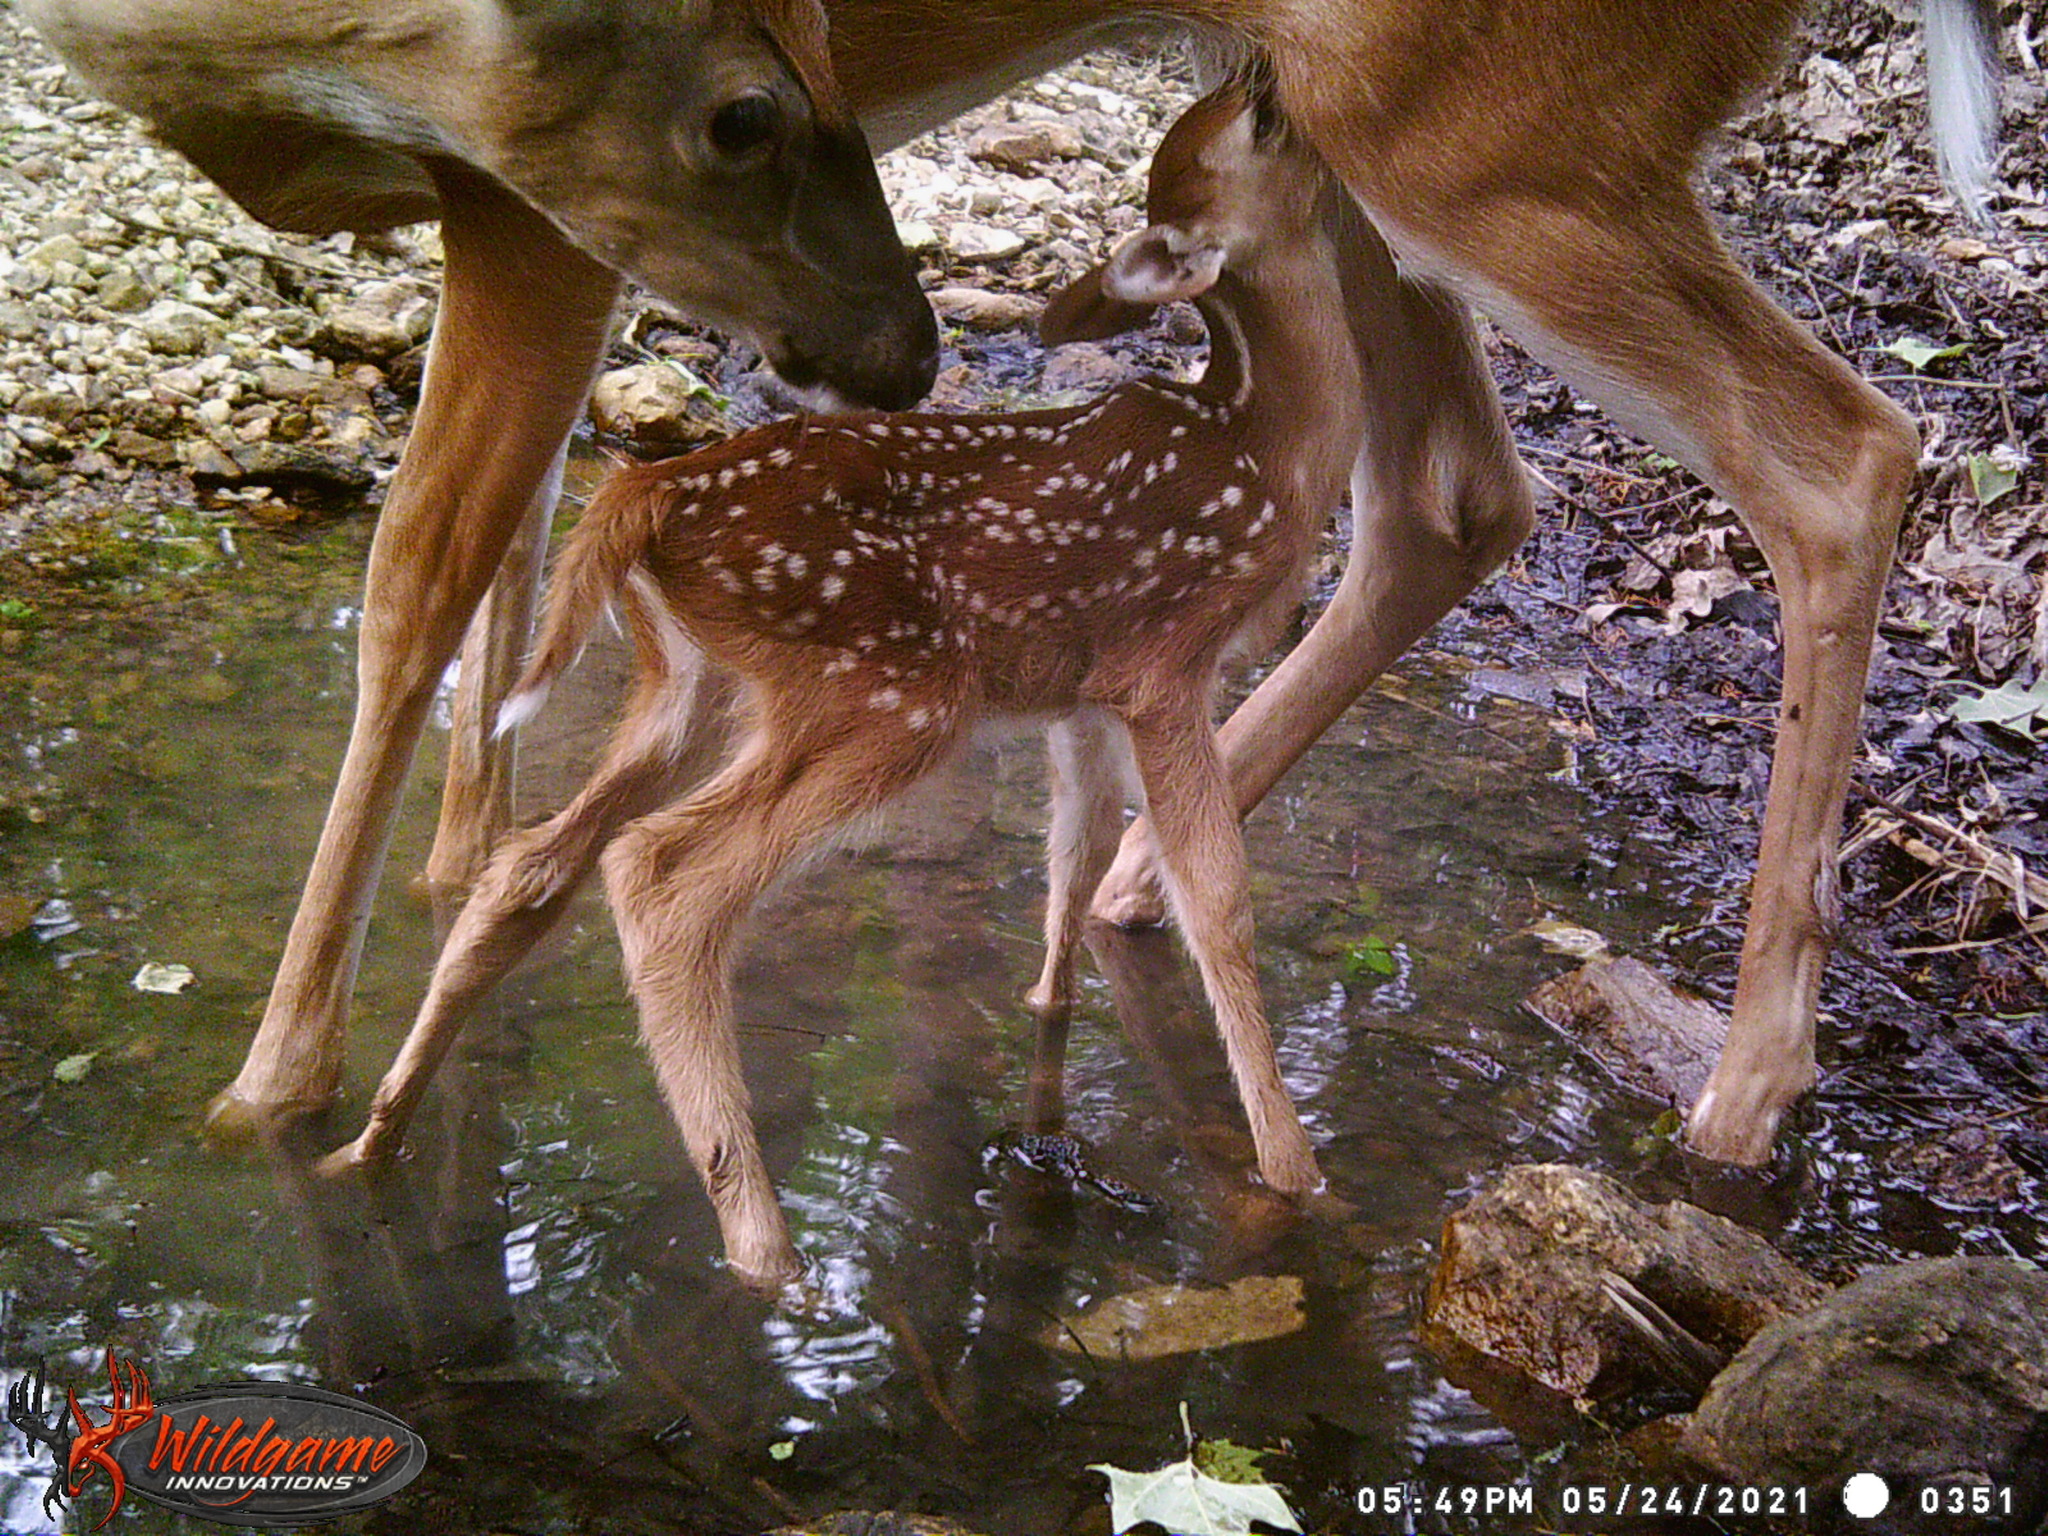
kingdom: Animalia
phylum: Chordata
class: Mammalia
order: Artiodactyla
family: Cervidae
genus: Odocoileus
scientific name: Odocoileus virginianus
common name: White-tailed deer
